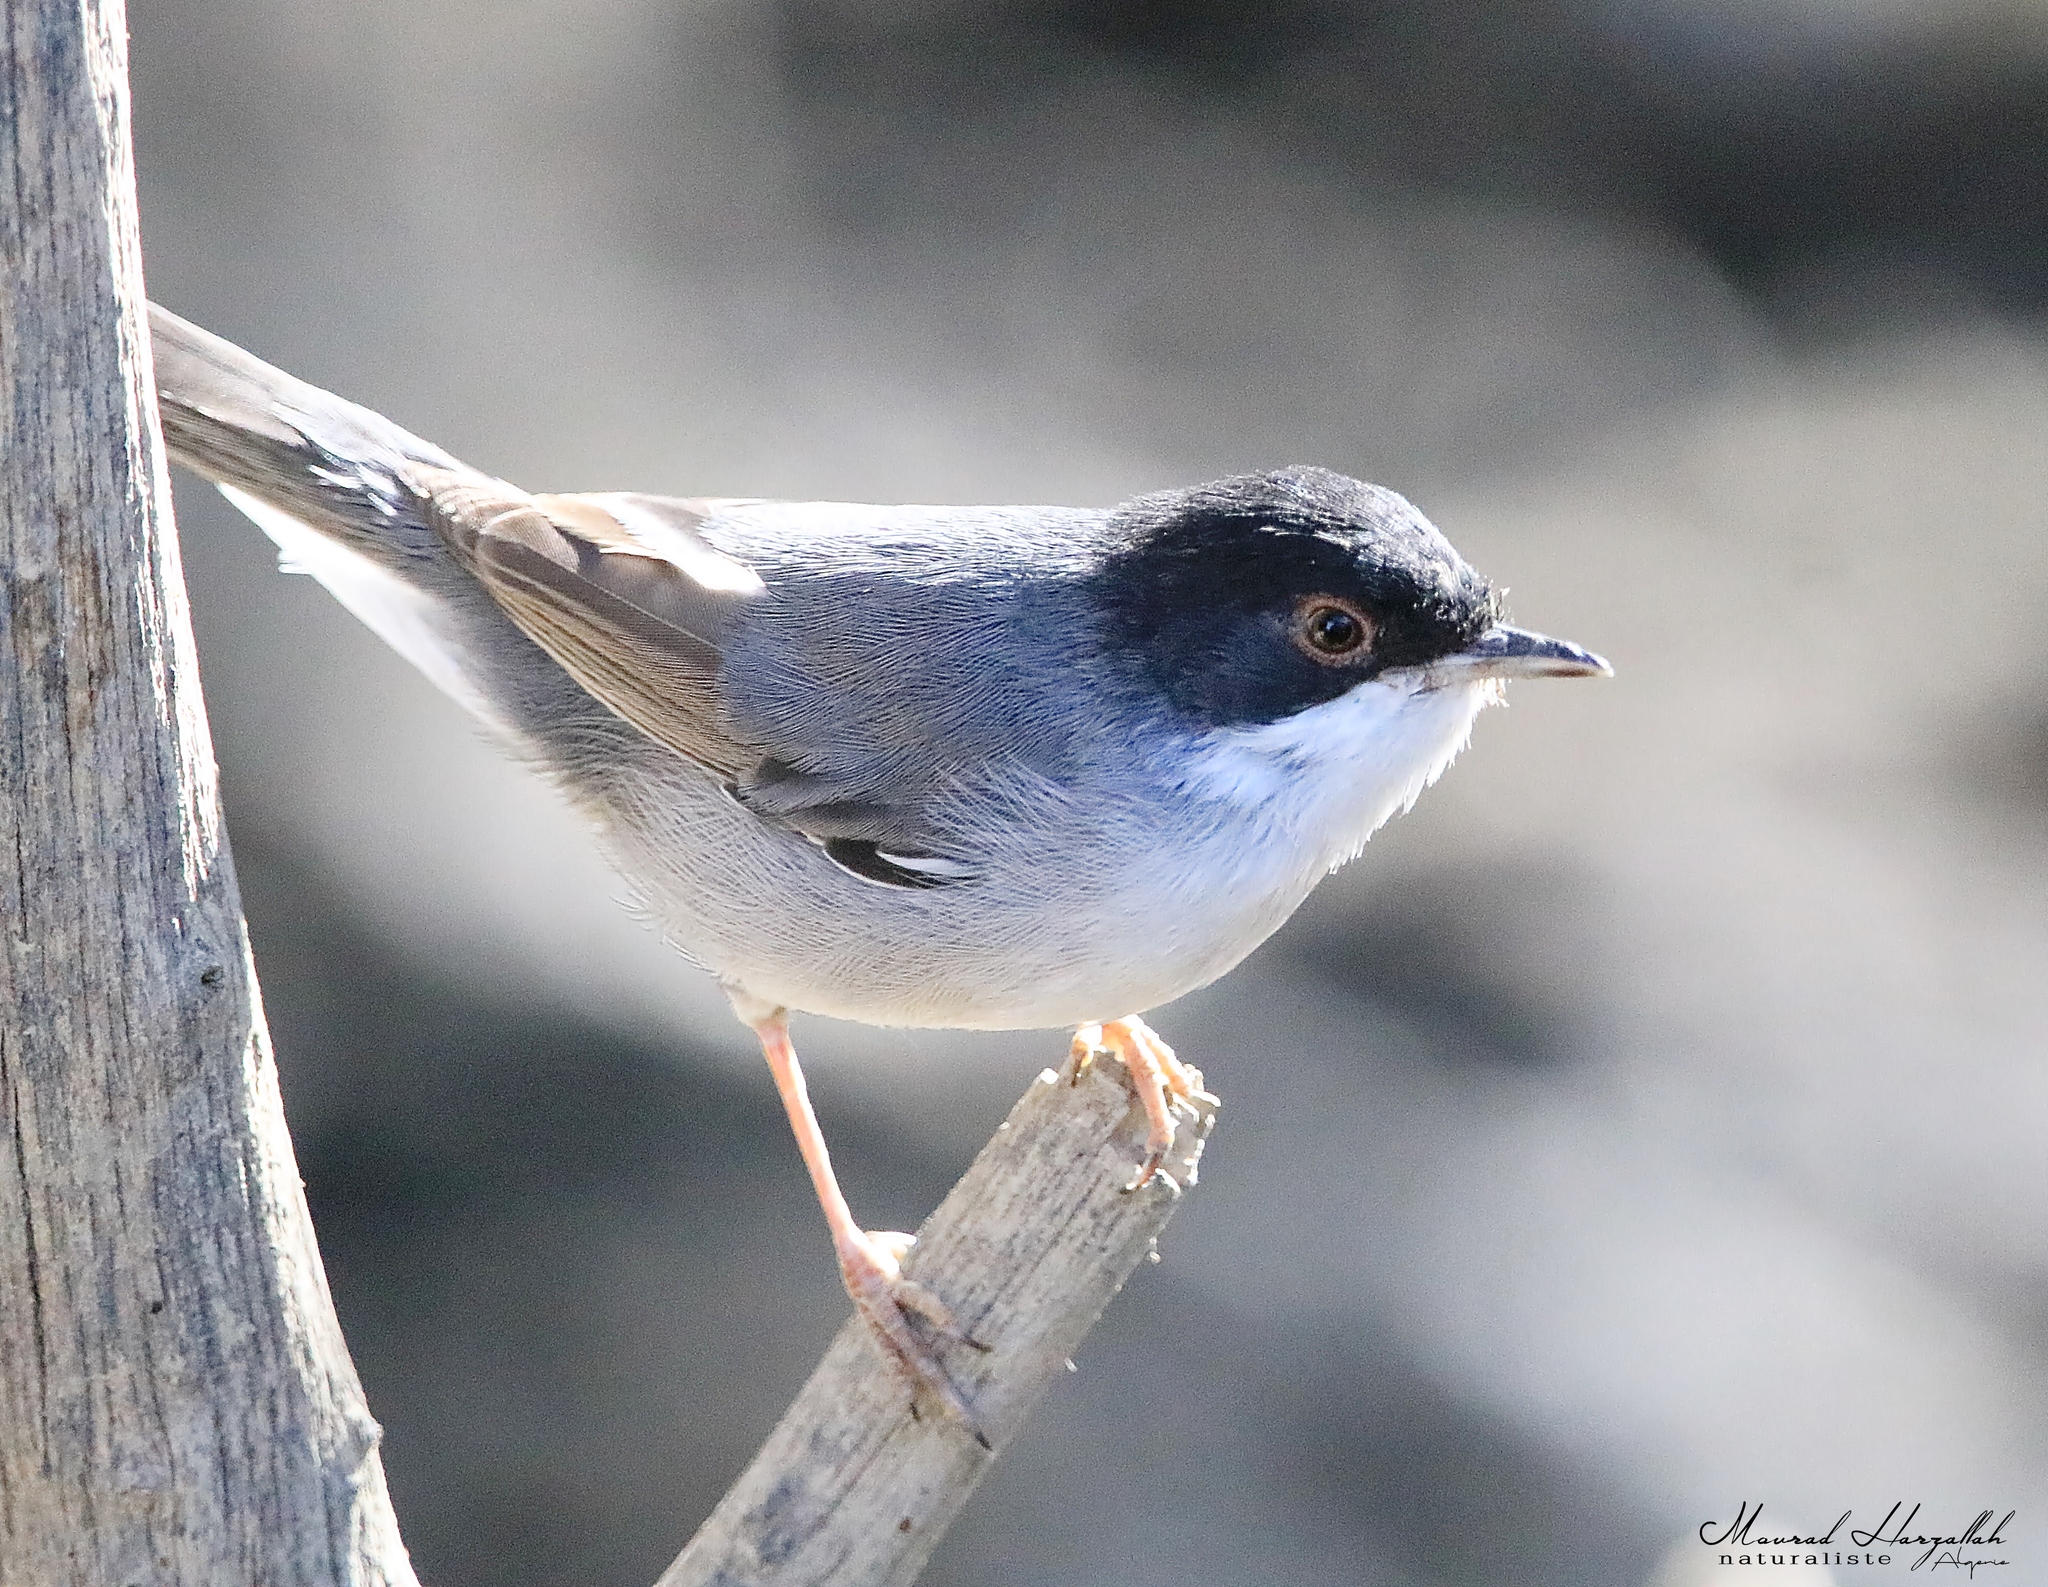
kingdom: Animalia
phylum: Chordata
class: Aves
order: Passeriformes
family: Sylviidae
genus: Curruca
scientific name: Curruca melanocephala
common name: Sardinian warbler
